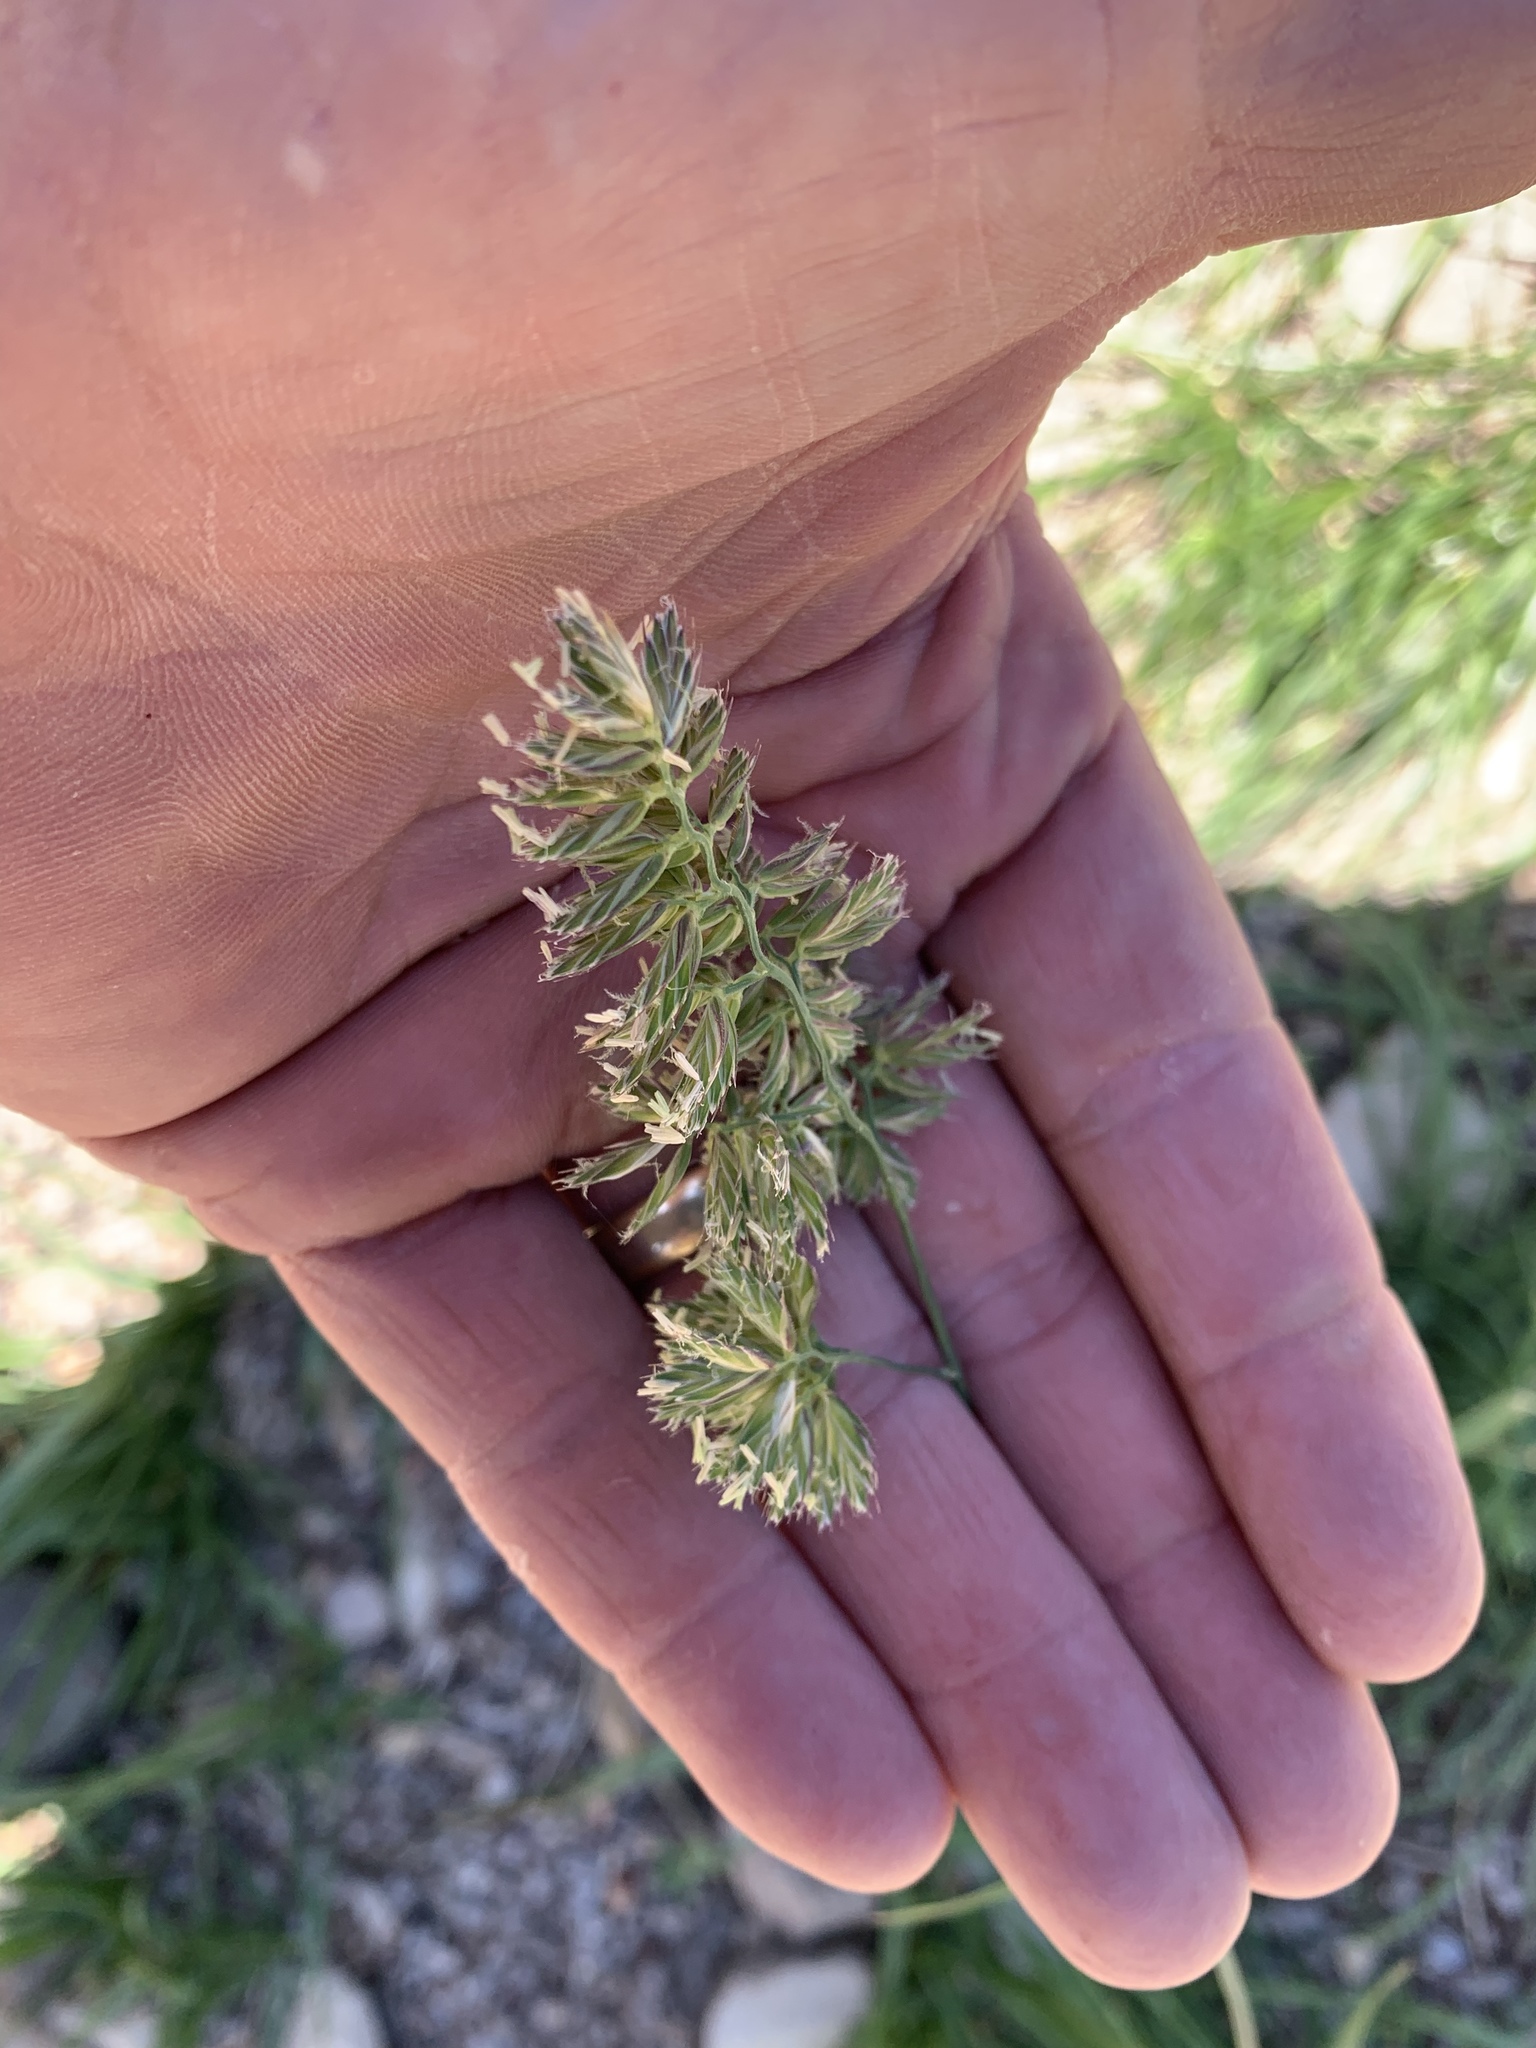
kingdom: Plantae
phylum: Tracheophyta
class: Liliopsida
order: Poales
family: Poaceae
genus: Dactylis
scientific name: Dactylis glomerata
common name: Orchardgrass
